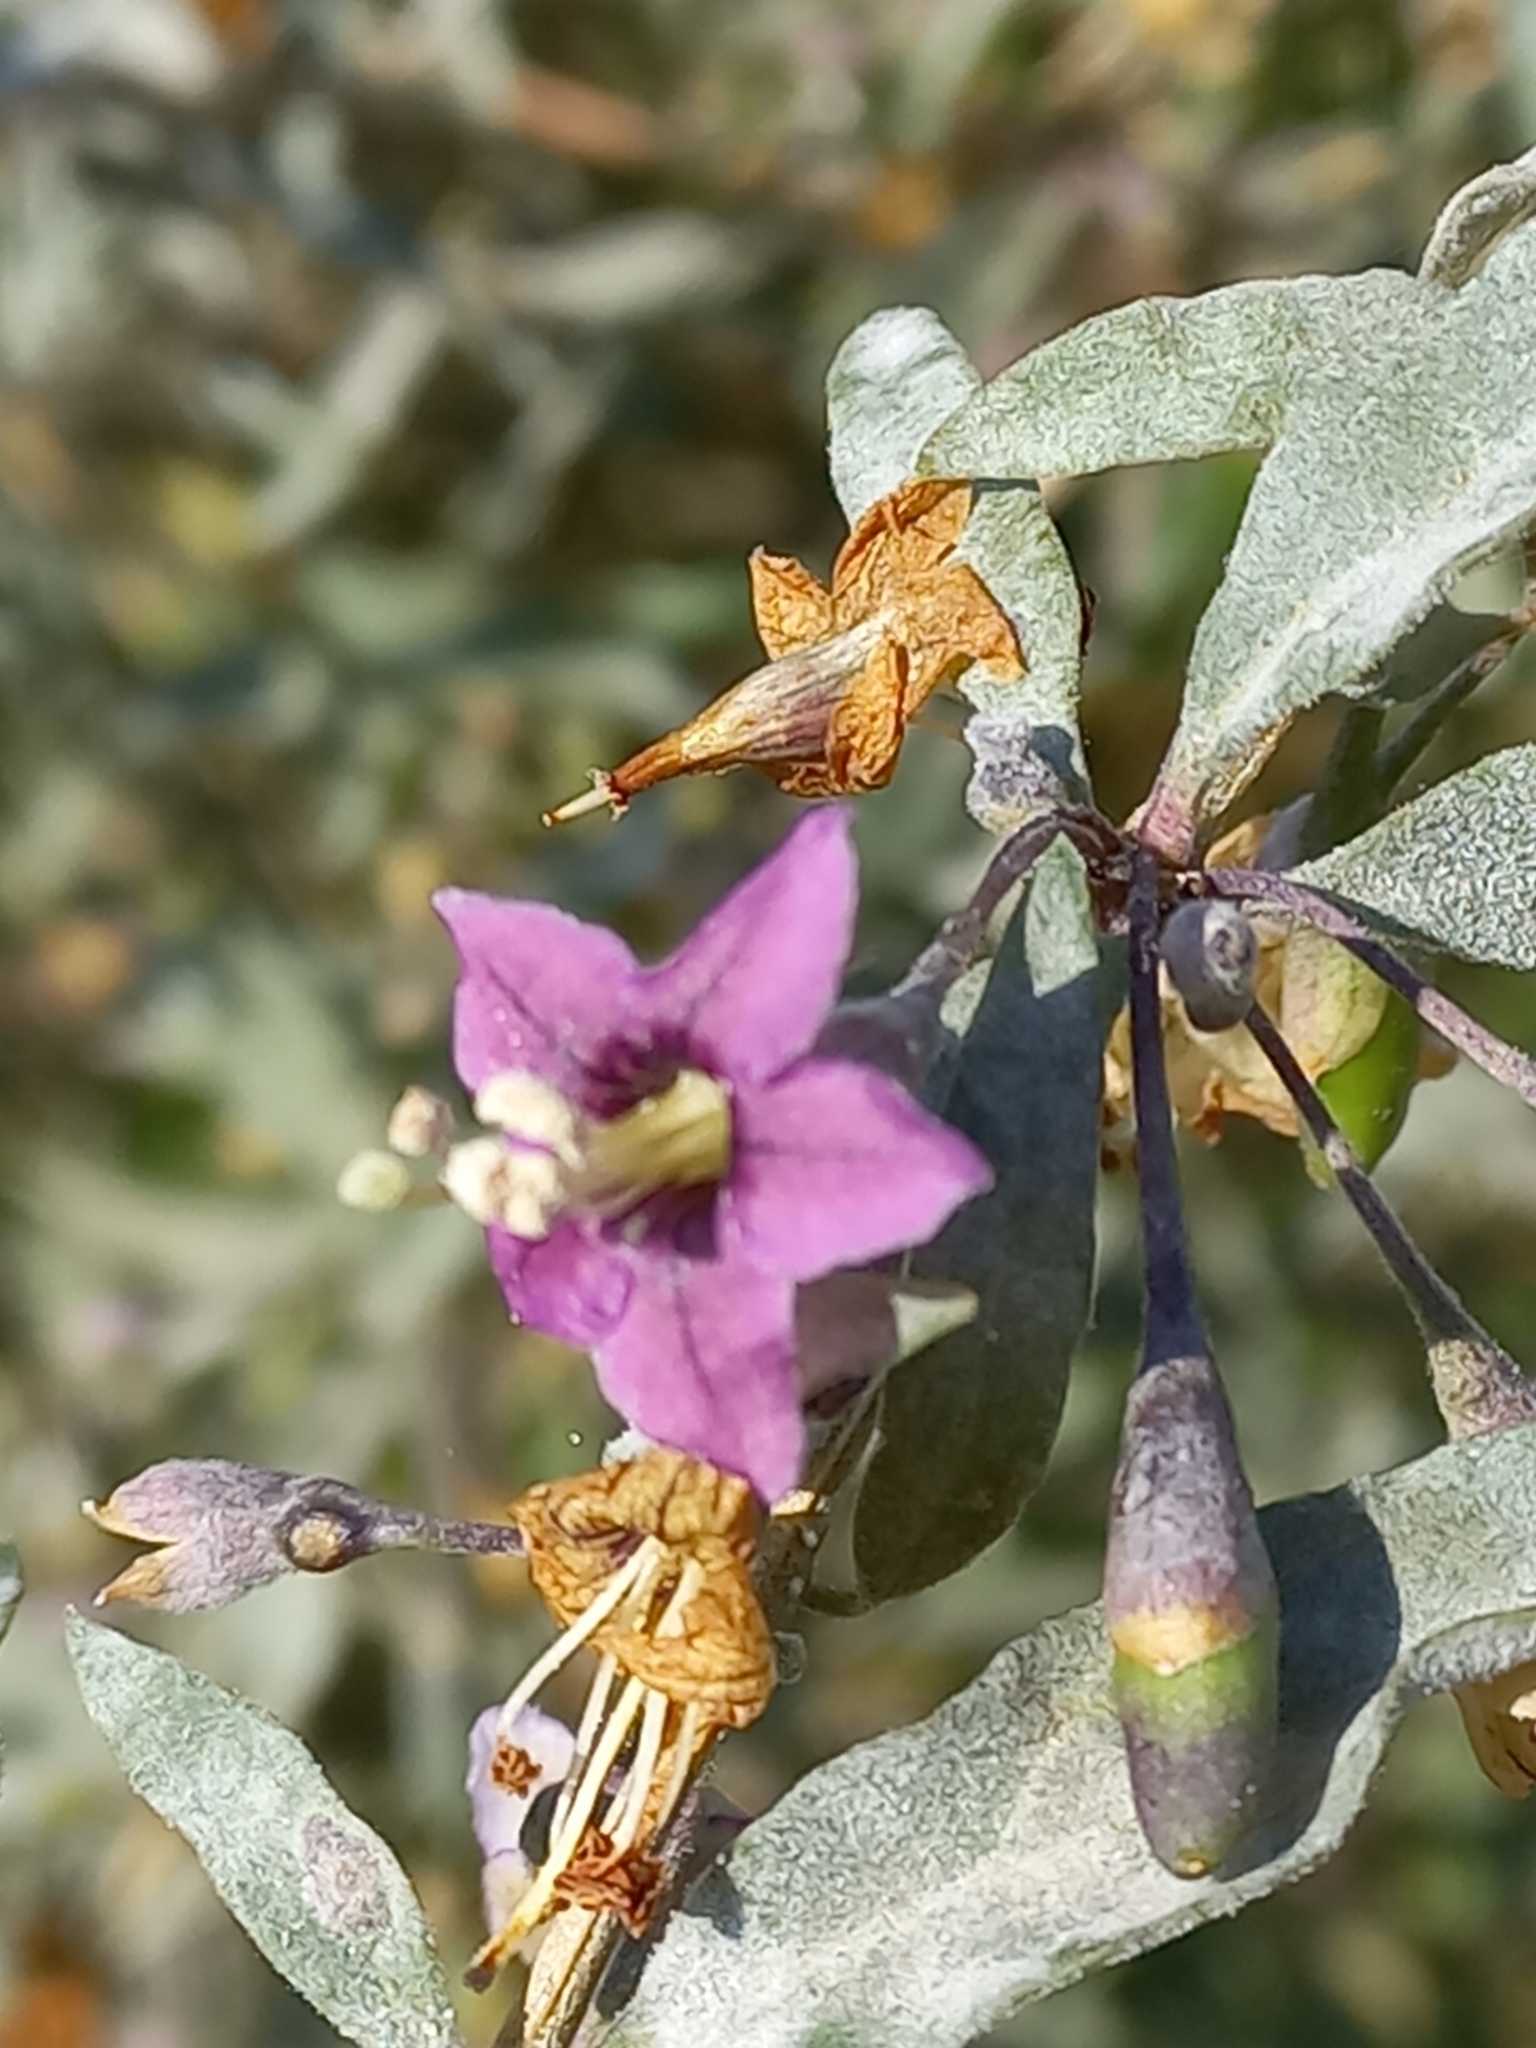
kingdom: Plantae
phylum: Tracheophyta
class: Magnoliopsida
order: Solanales
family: Solanaceae
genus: Lycium
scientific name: Lycium barbarum
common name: Duke of argyll's teaplant
